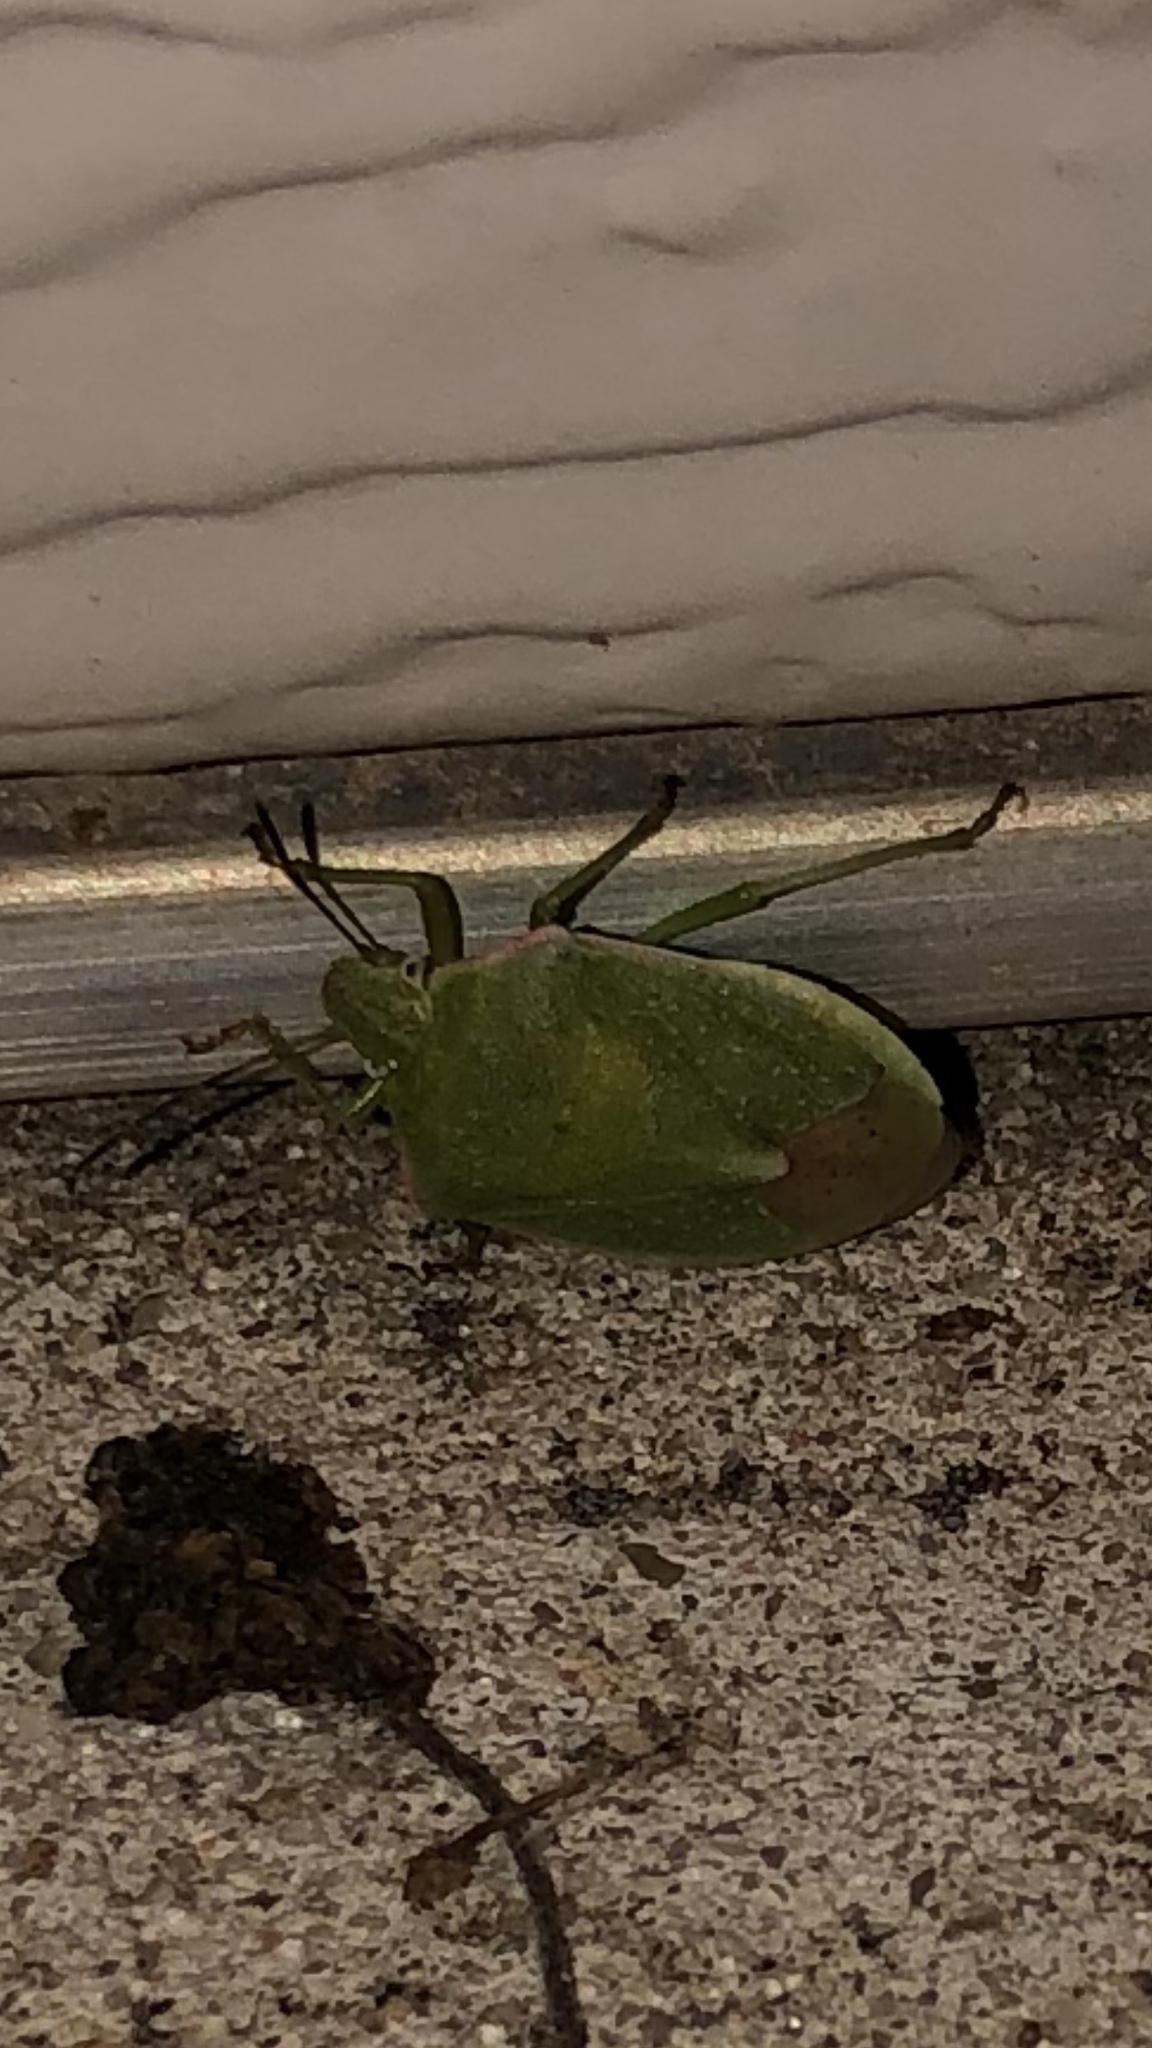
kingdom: Animalia
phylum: Arthropoda
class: Insecta
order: Hemiptera
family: Pentatomidae
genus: Thyanta
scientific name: Thyanta accerra
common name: Stink bug
